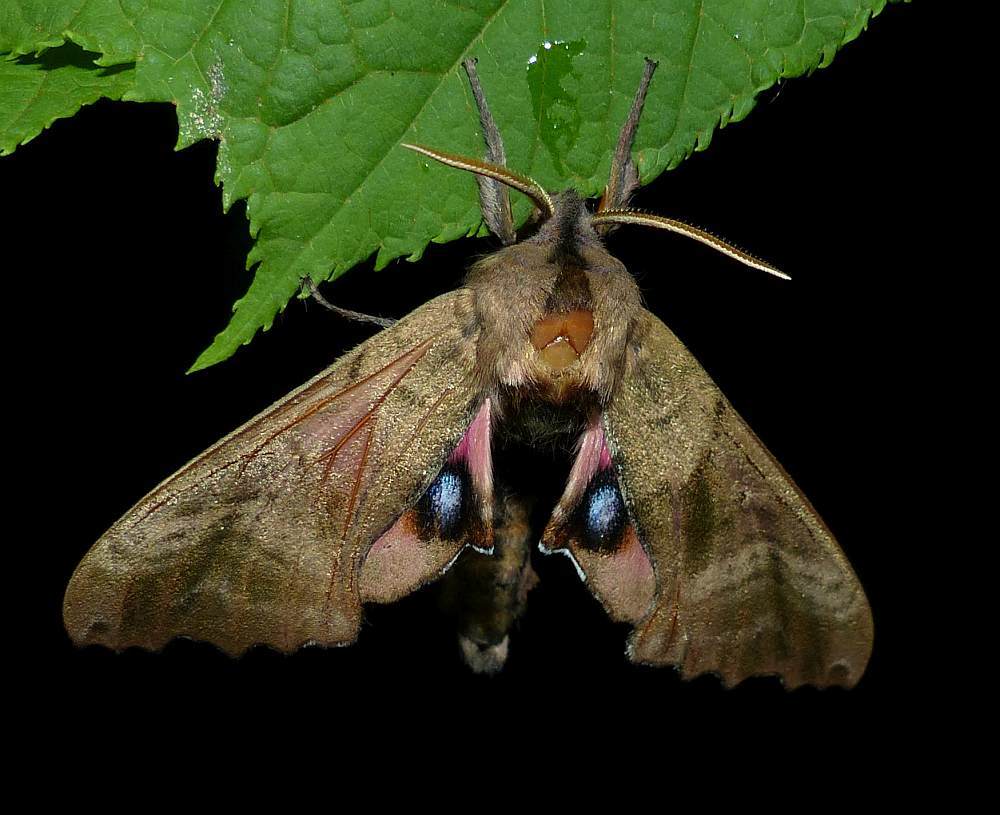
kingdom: Animalia
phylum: Arthropoda
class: Insecta
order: Lepidoptera
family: Sphingidae
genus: Paonias
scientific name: Paonias excaecata
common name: Blind-eyed sphinx
